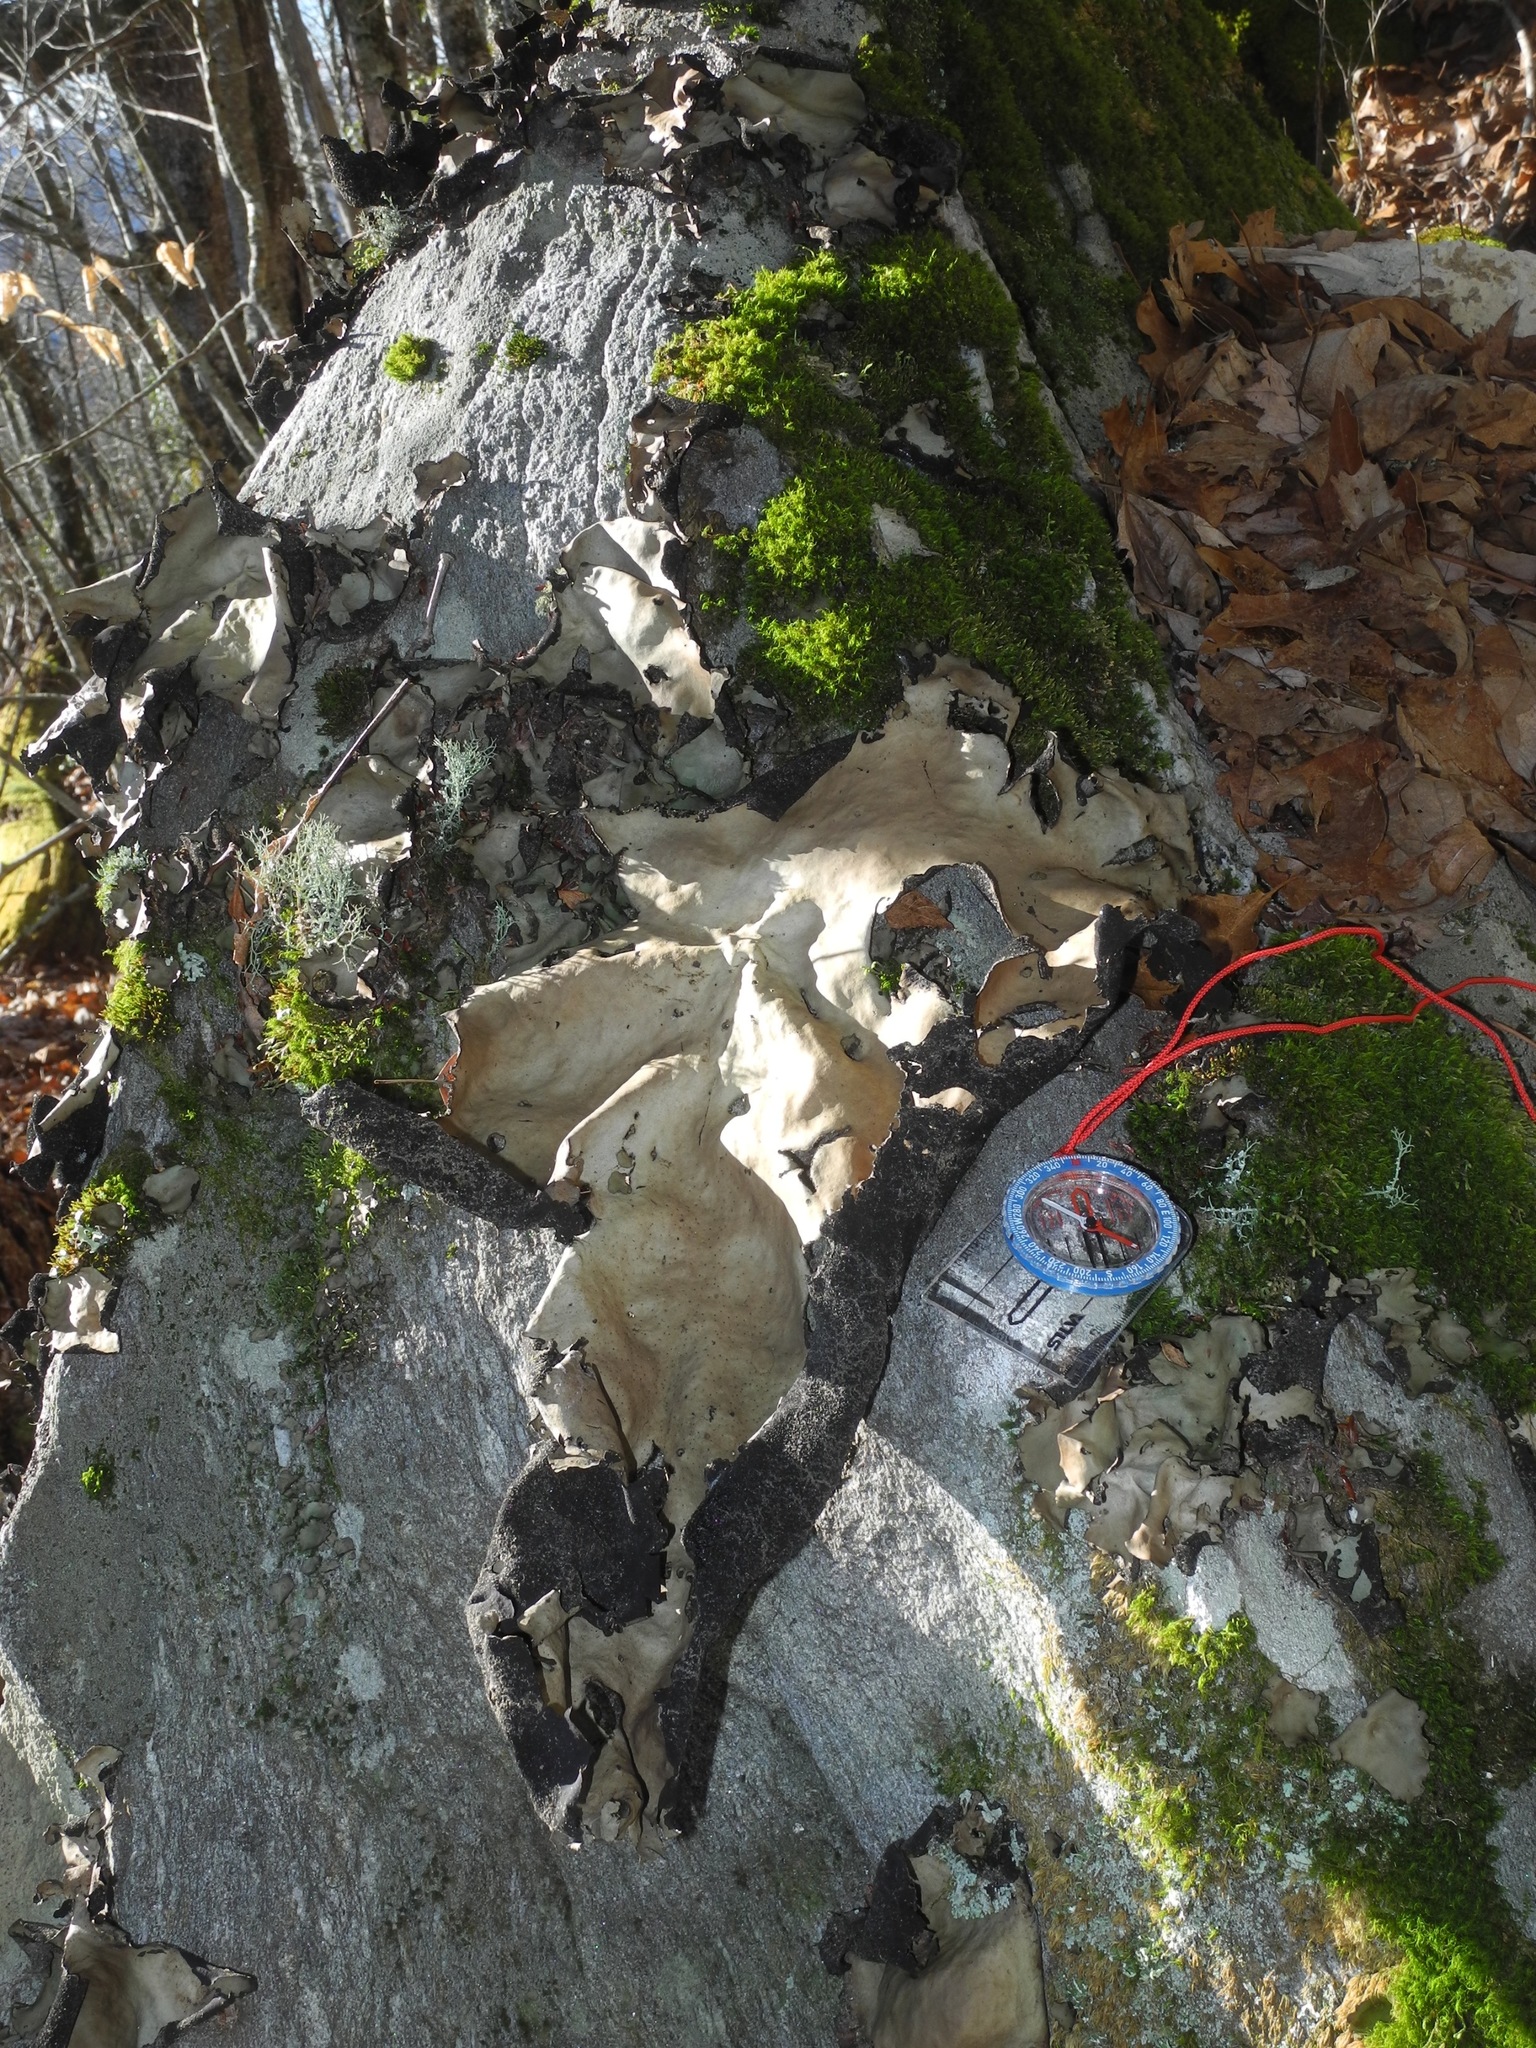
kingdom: Fungi
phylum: Ascomycota
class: Lecanoromycetes
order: Umbilicariales
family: Umbilicariaceae
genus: Umbilicaria
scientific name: Umbilicaria mammulata
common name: Smooth rock tripe
